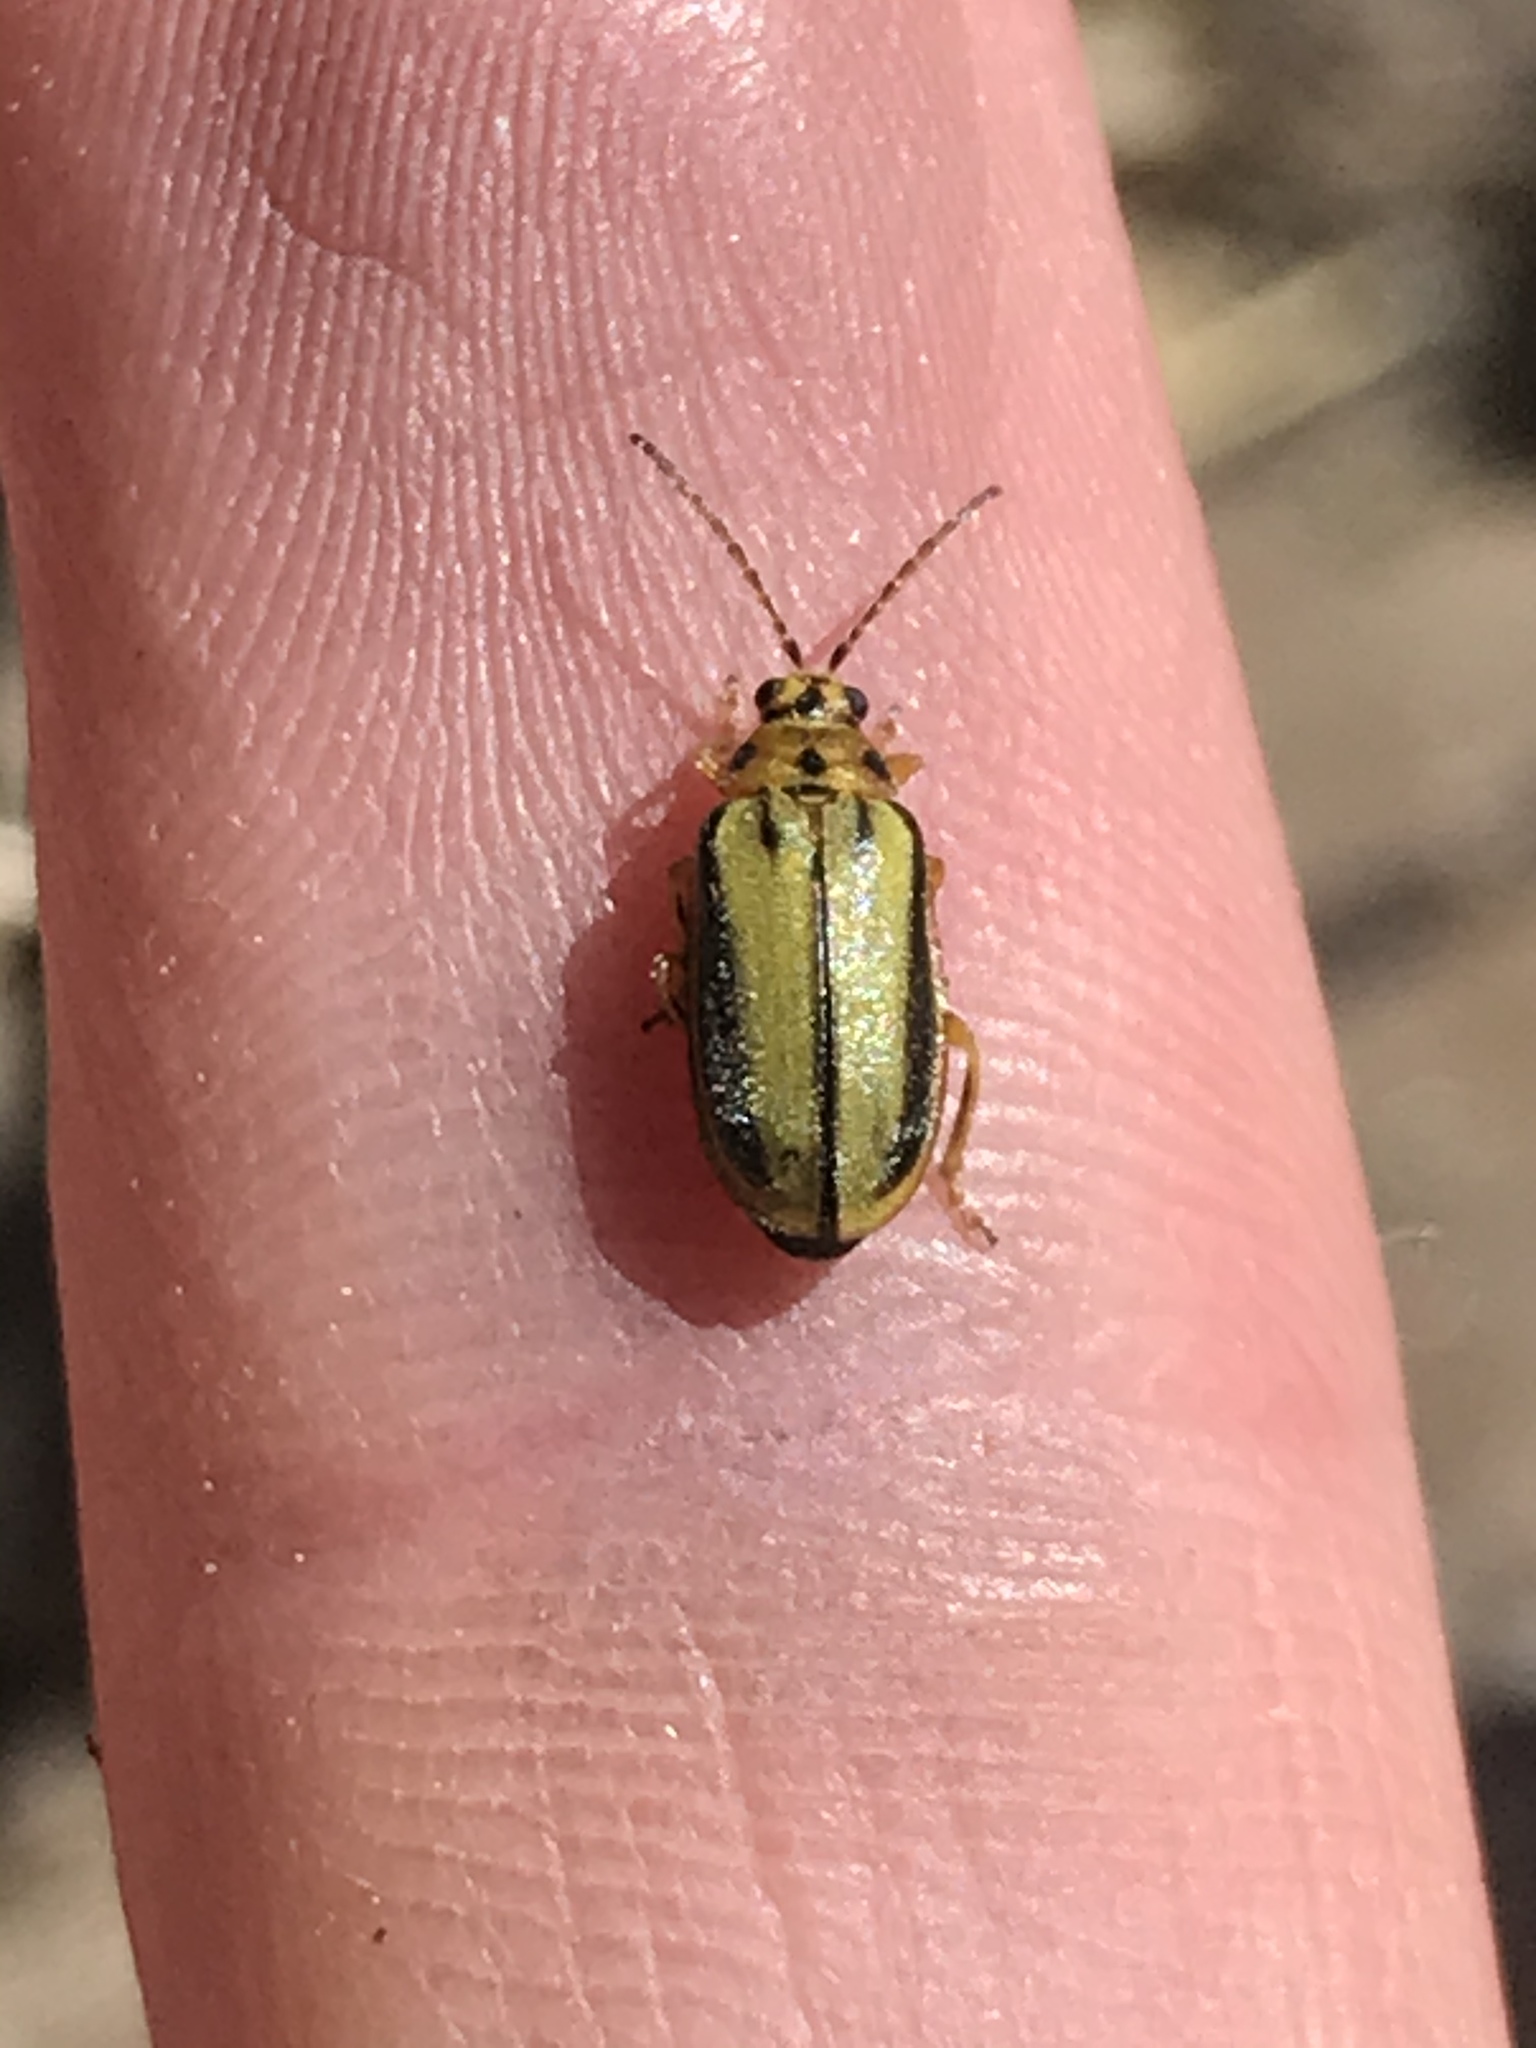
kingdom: Animalia
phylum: Arthropoda
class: Insecta
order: Coleoptera
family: Chrysomelidae
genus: Xanthogaleruca
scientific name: Xanthogaleruca luteola
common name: Elm leaf beetle
